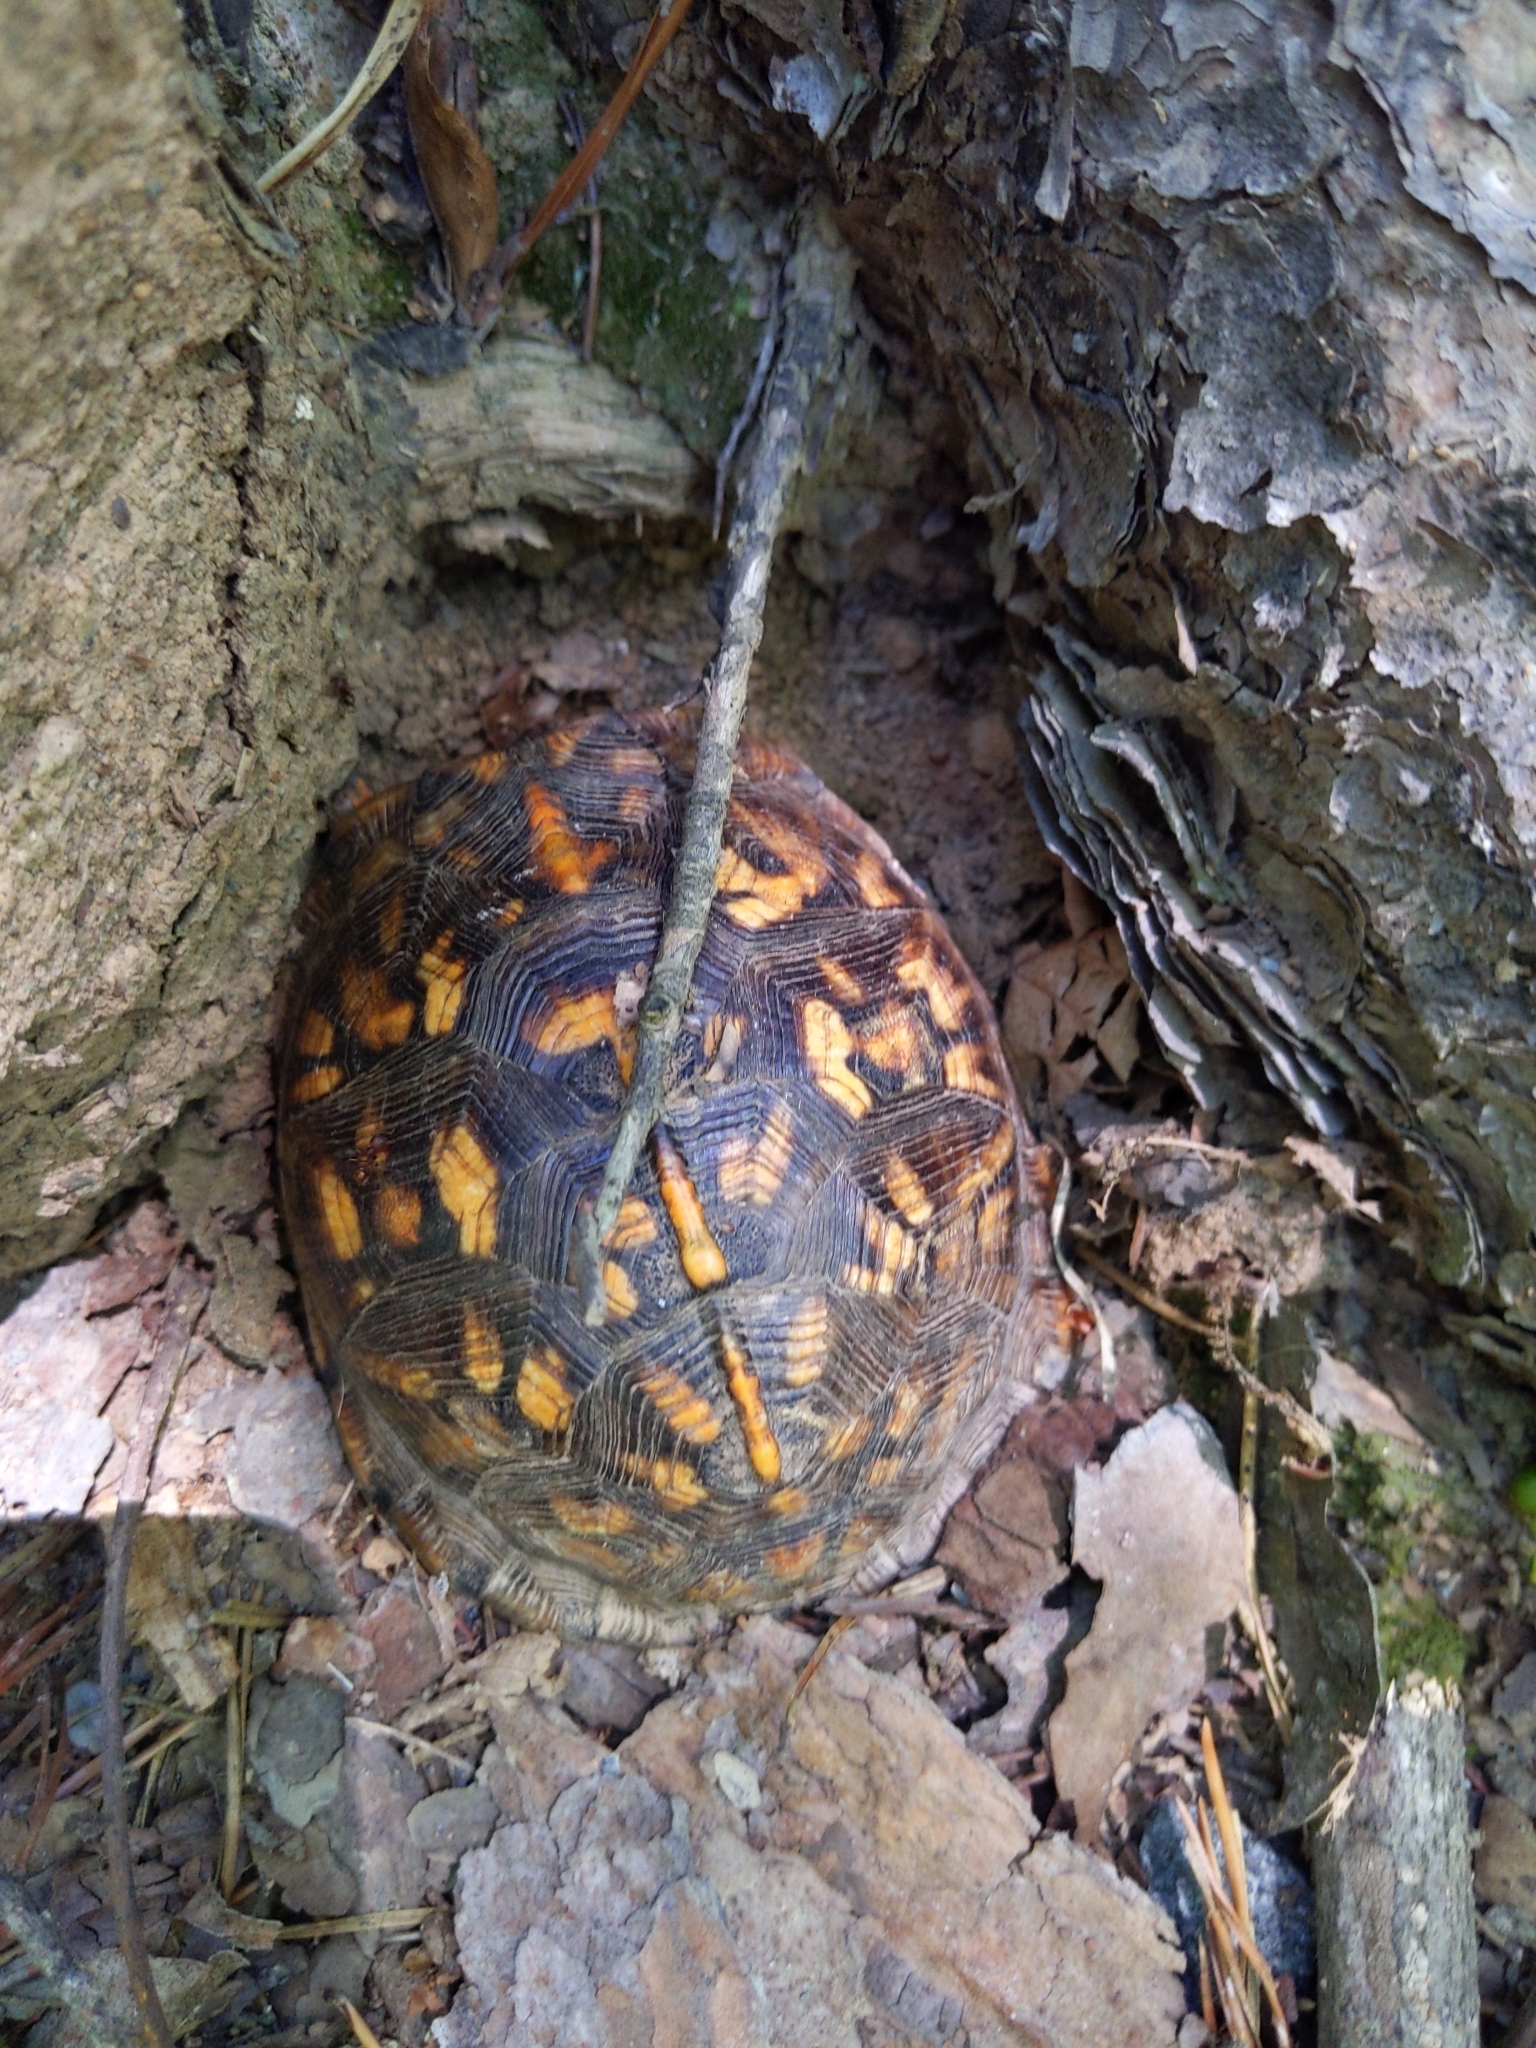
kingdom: Animalia
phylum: Chordata
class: Testudines
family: Emydidae
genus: Terrapene
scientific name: Terrapene carolina
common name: Common box turtle
